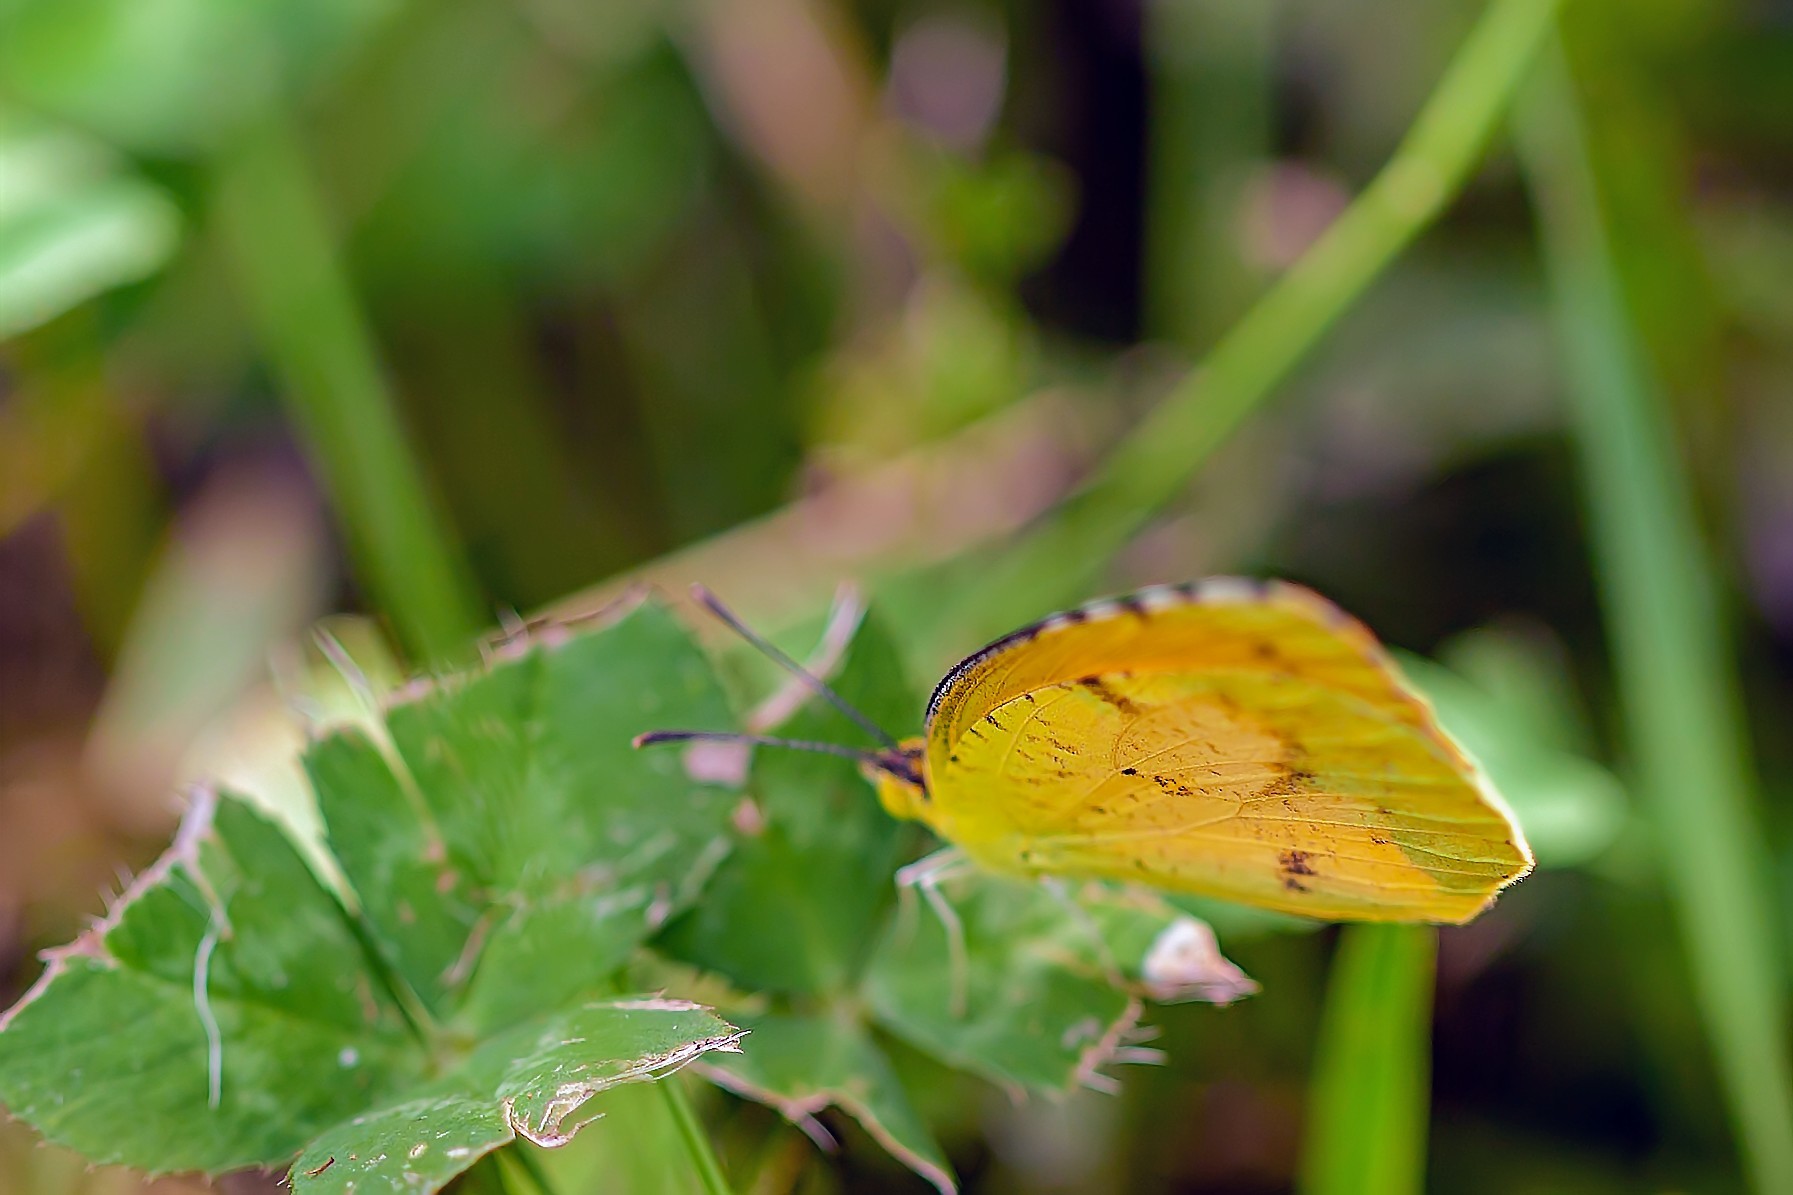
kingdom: Animalia
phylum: Arthropoda
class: Insecta
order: Lepidoptera
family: Pieridae
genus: Abaeis
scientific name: Abaeis nicippe
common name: Sleepy orange
